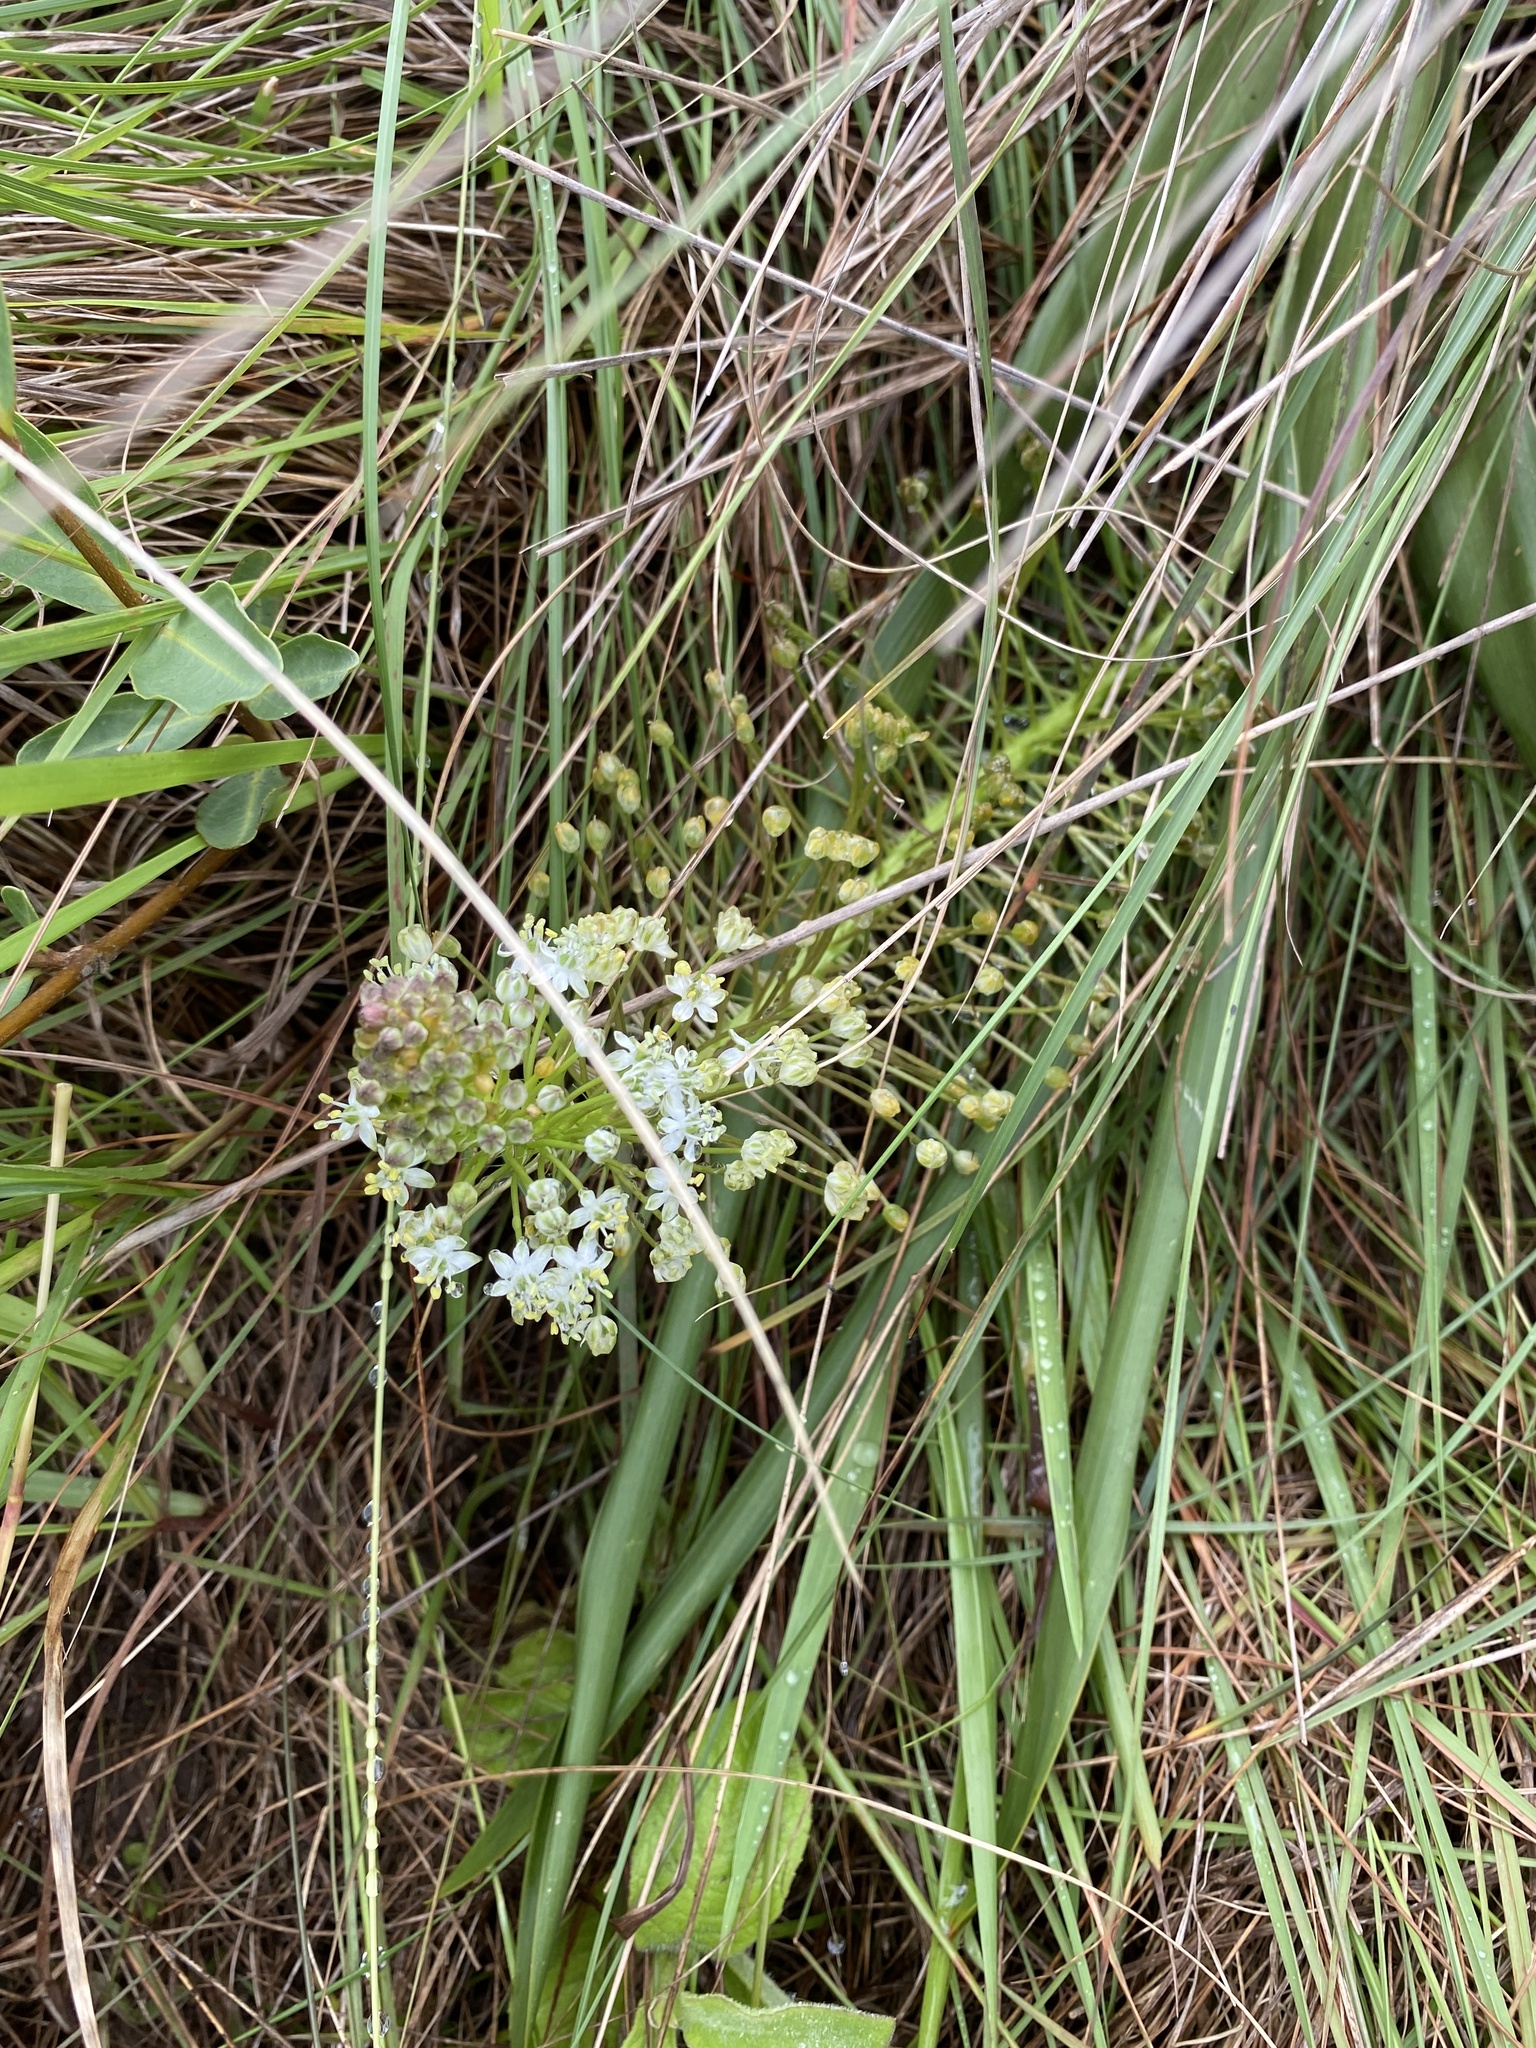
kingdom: Plantae
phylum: Tracheophyta
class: Liliopsida
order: Asparagales
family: Asparagaceae
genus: Schizocarphus
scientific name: Schizocarphus nervosus
